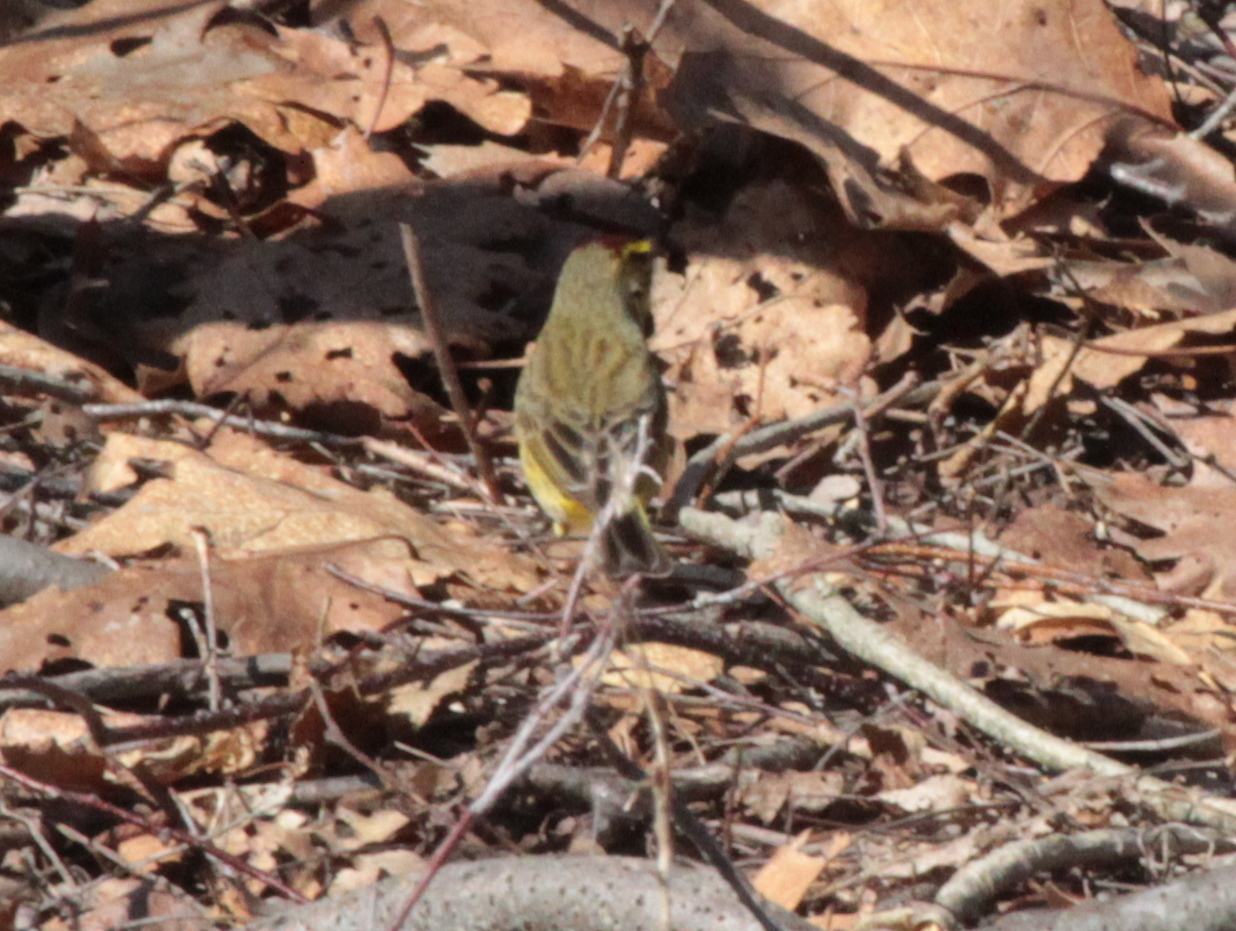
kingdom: Animalia
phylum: Chordata
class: Aves
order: Passeriformes
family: Parulidae
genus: Setophaga
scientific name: Setophaga palmarum
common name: Palm warbler
